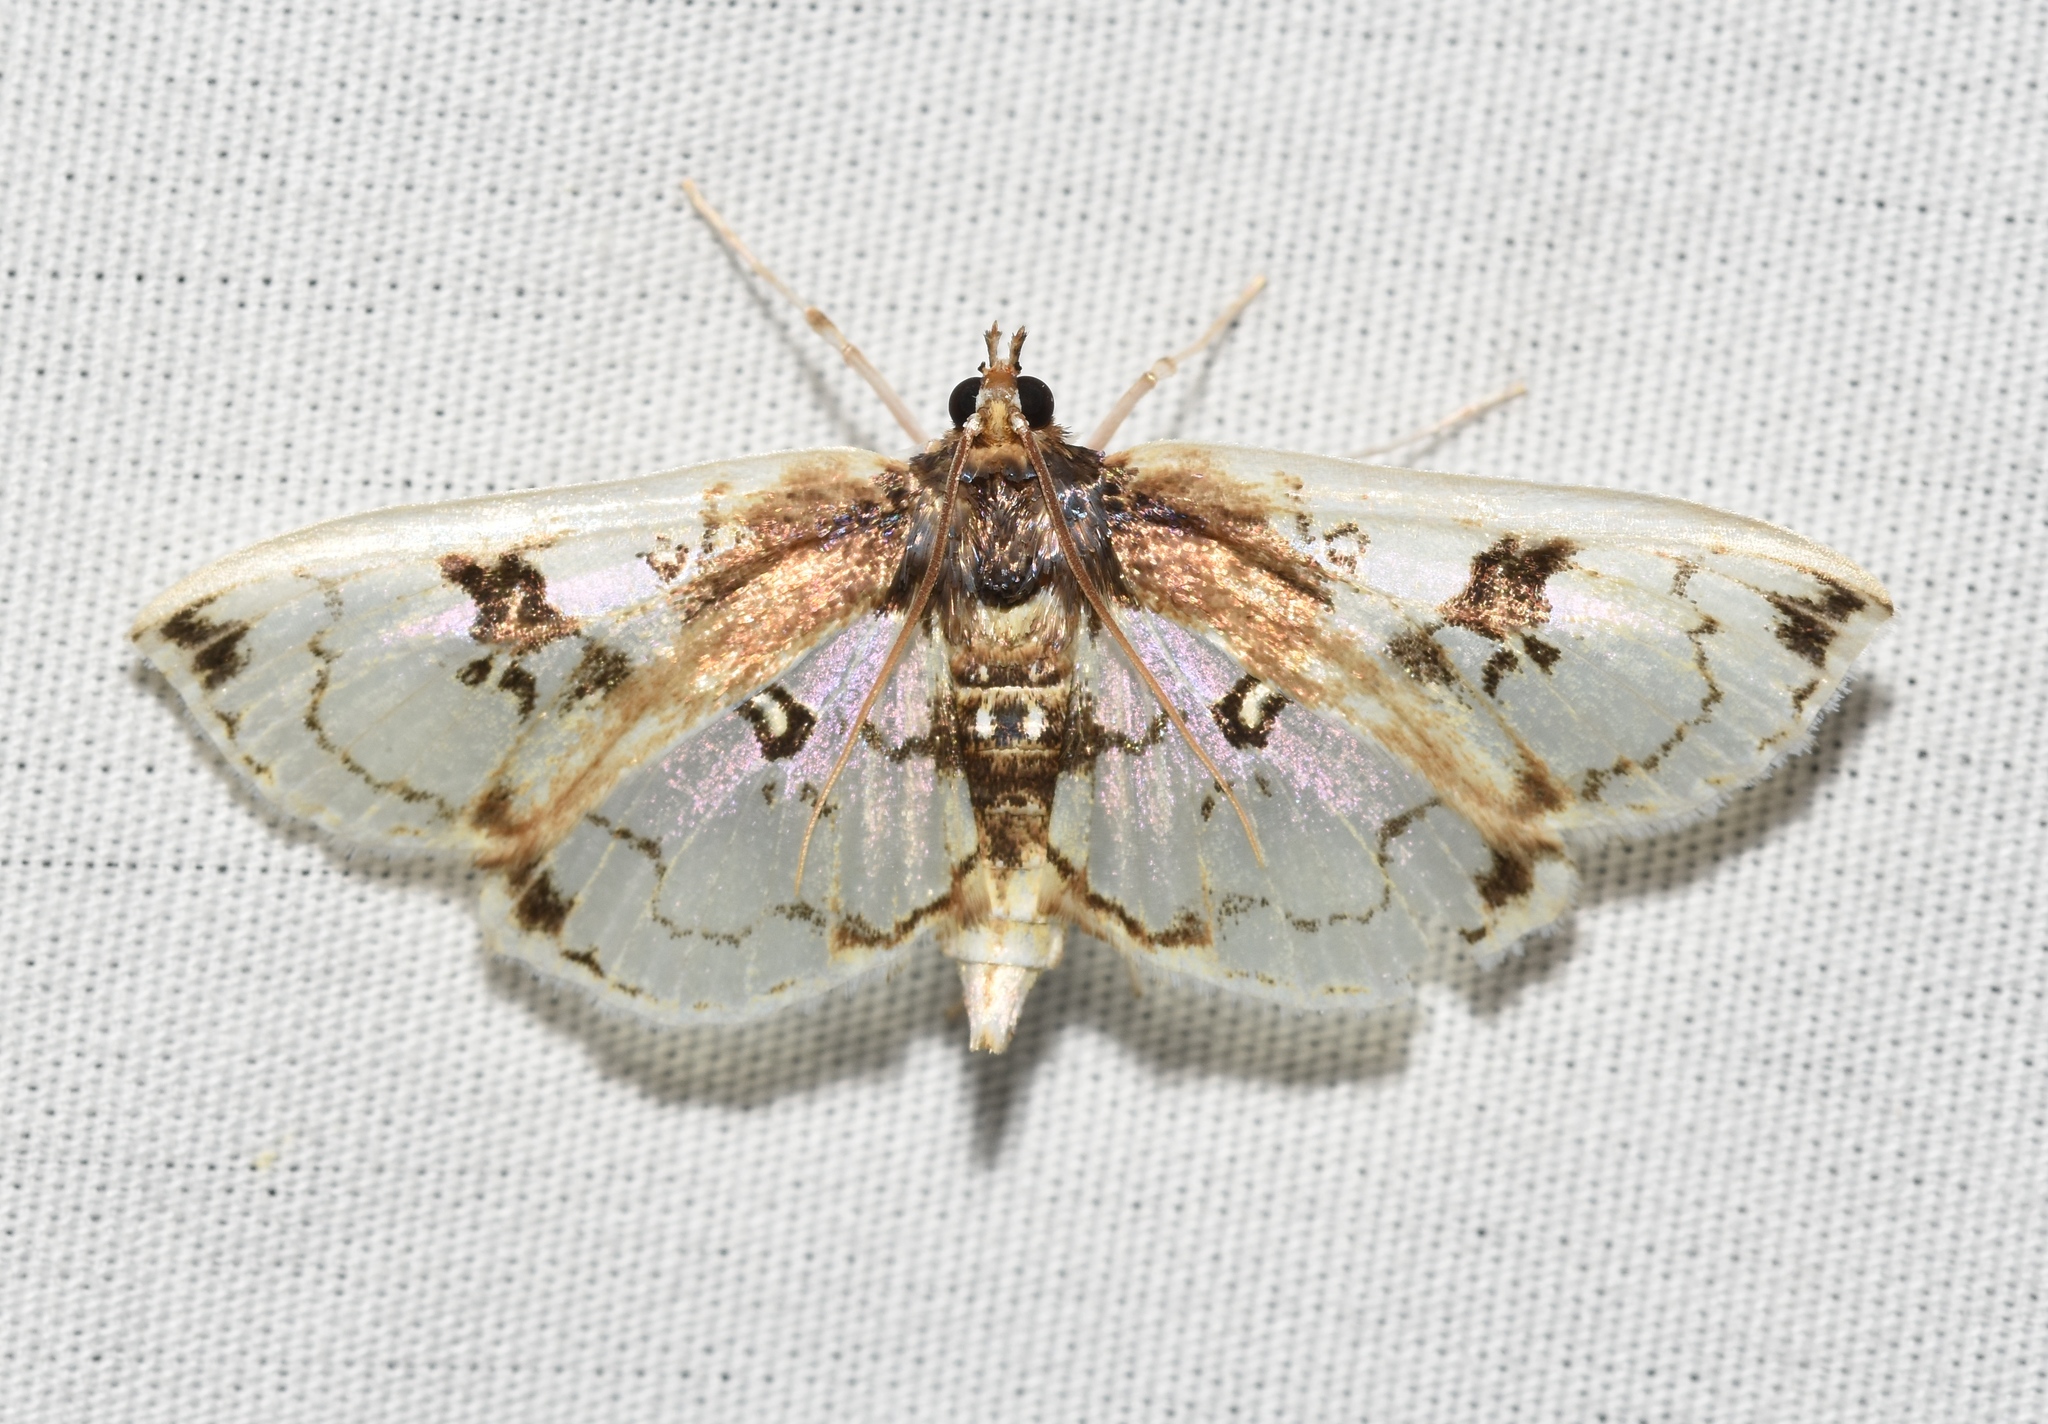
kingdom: Animalia
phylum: Arthropoda
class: Insecta
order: Lepidoptera
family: Crambidae
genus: Compacta
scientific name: Compacta capitalis
